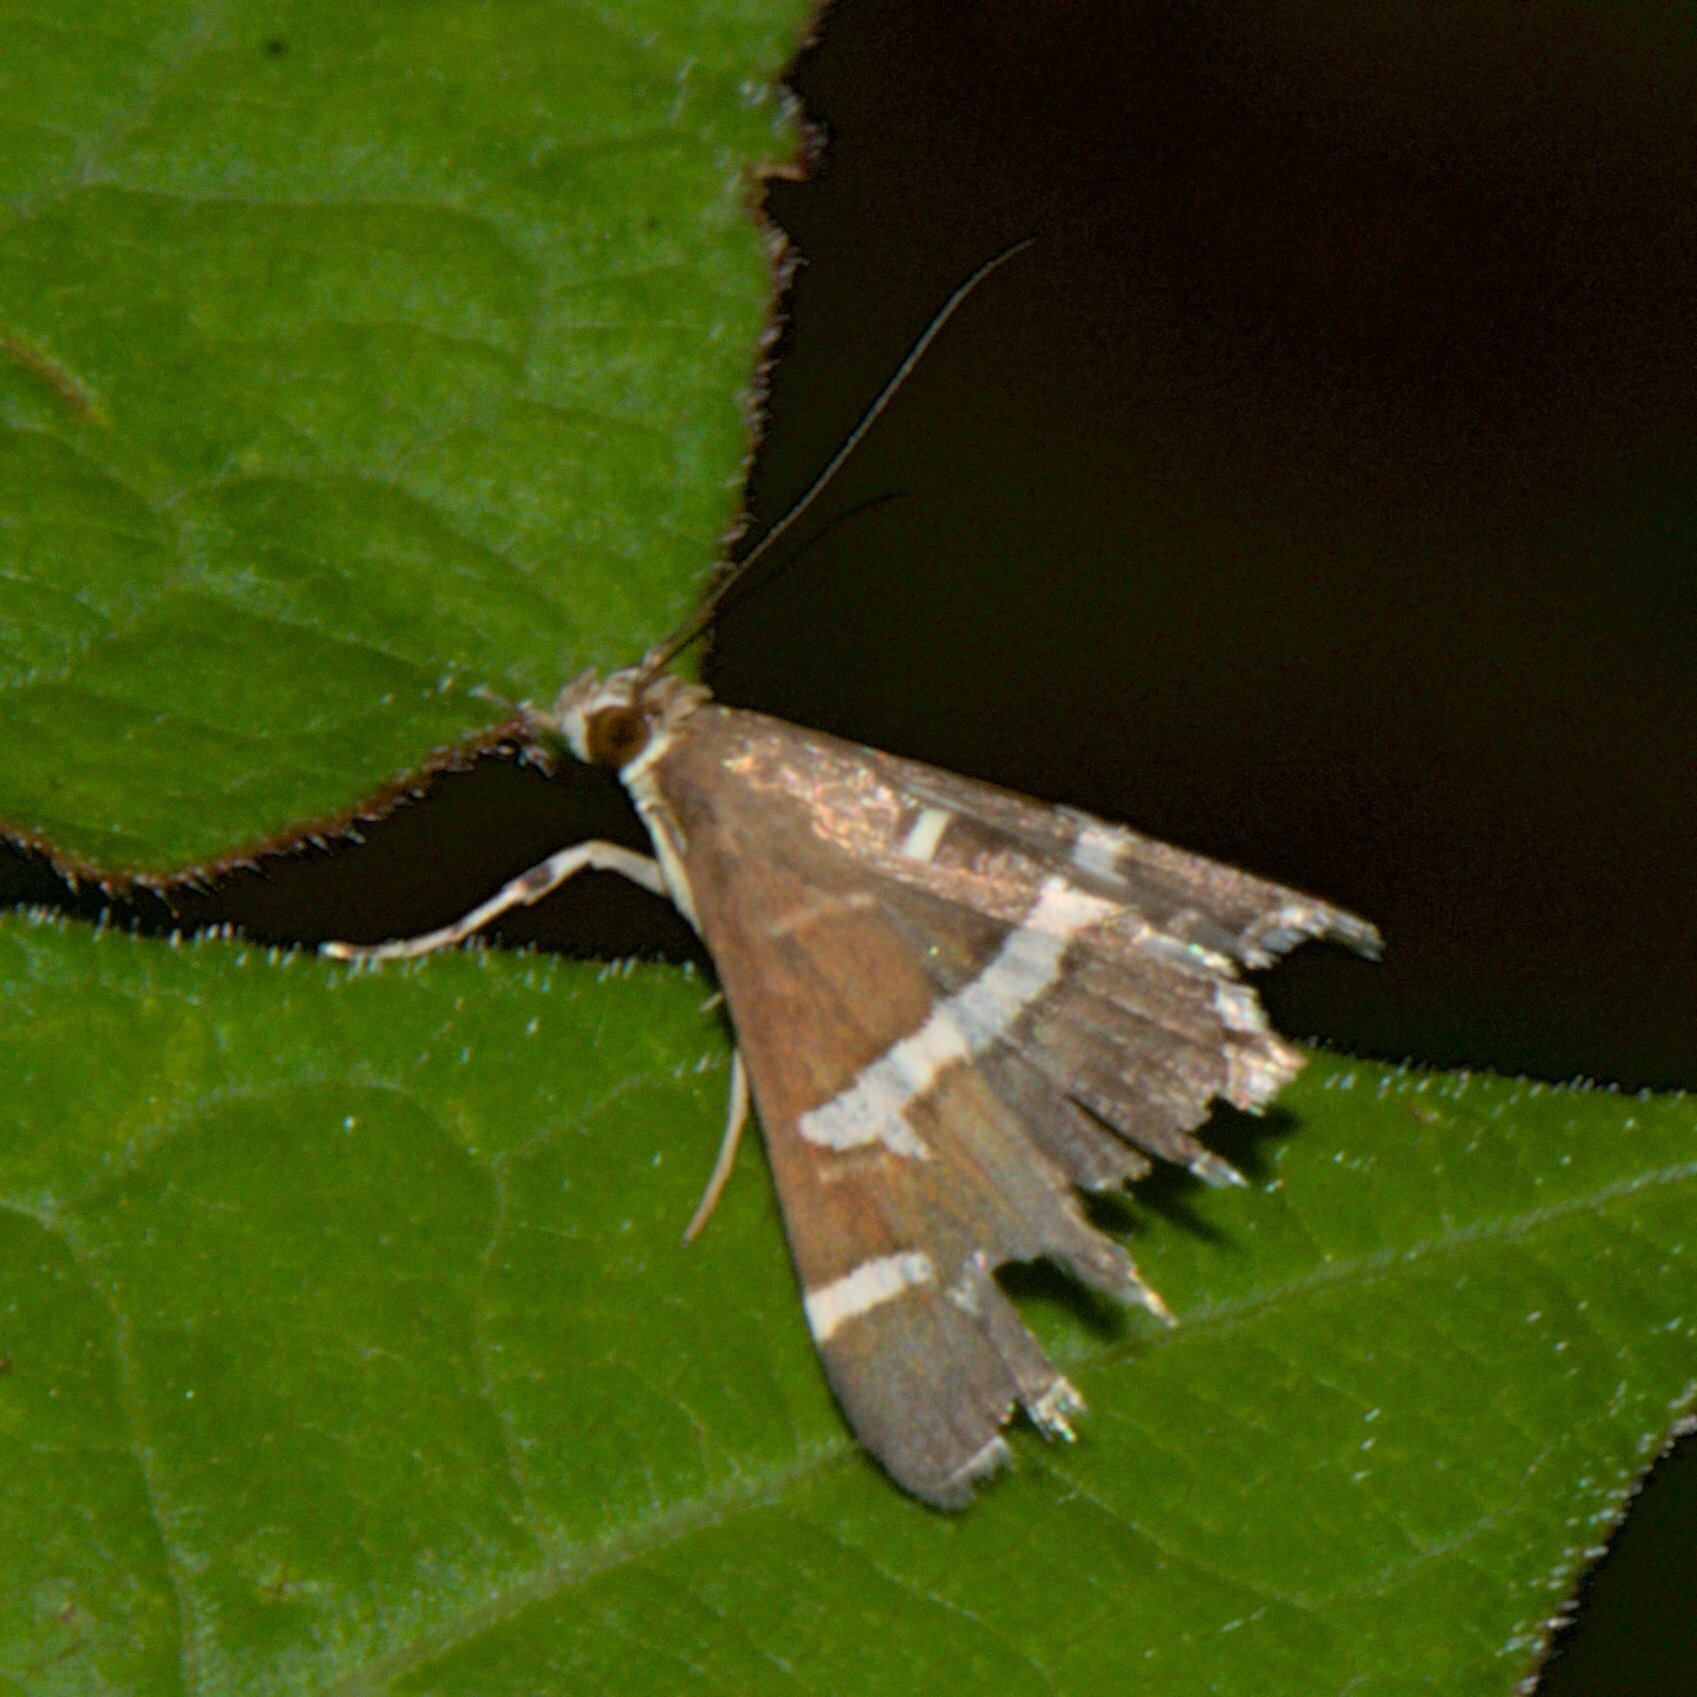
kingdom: Animalia
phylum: Arthropoda
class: Insecta
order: Lepidoptera
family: Crambidae
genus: Spoladea
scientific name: Spoladea recurvalis
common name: Beet webworm moth
